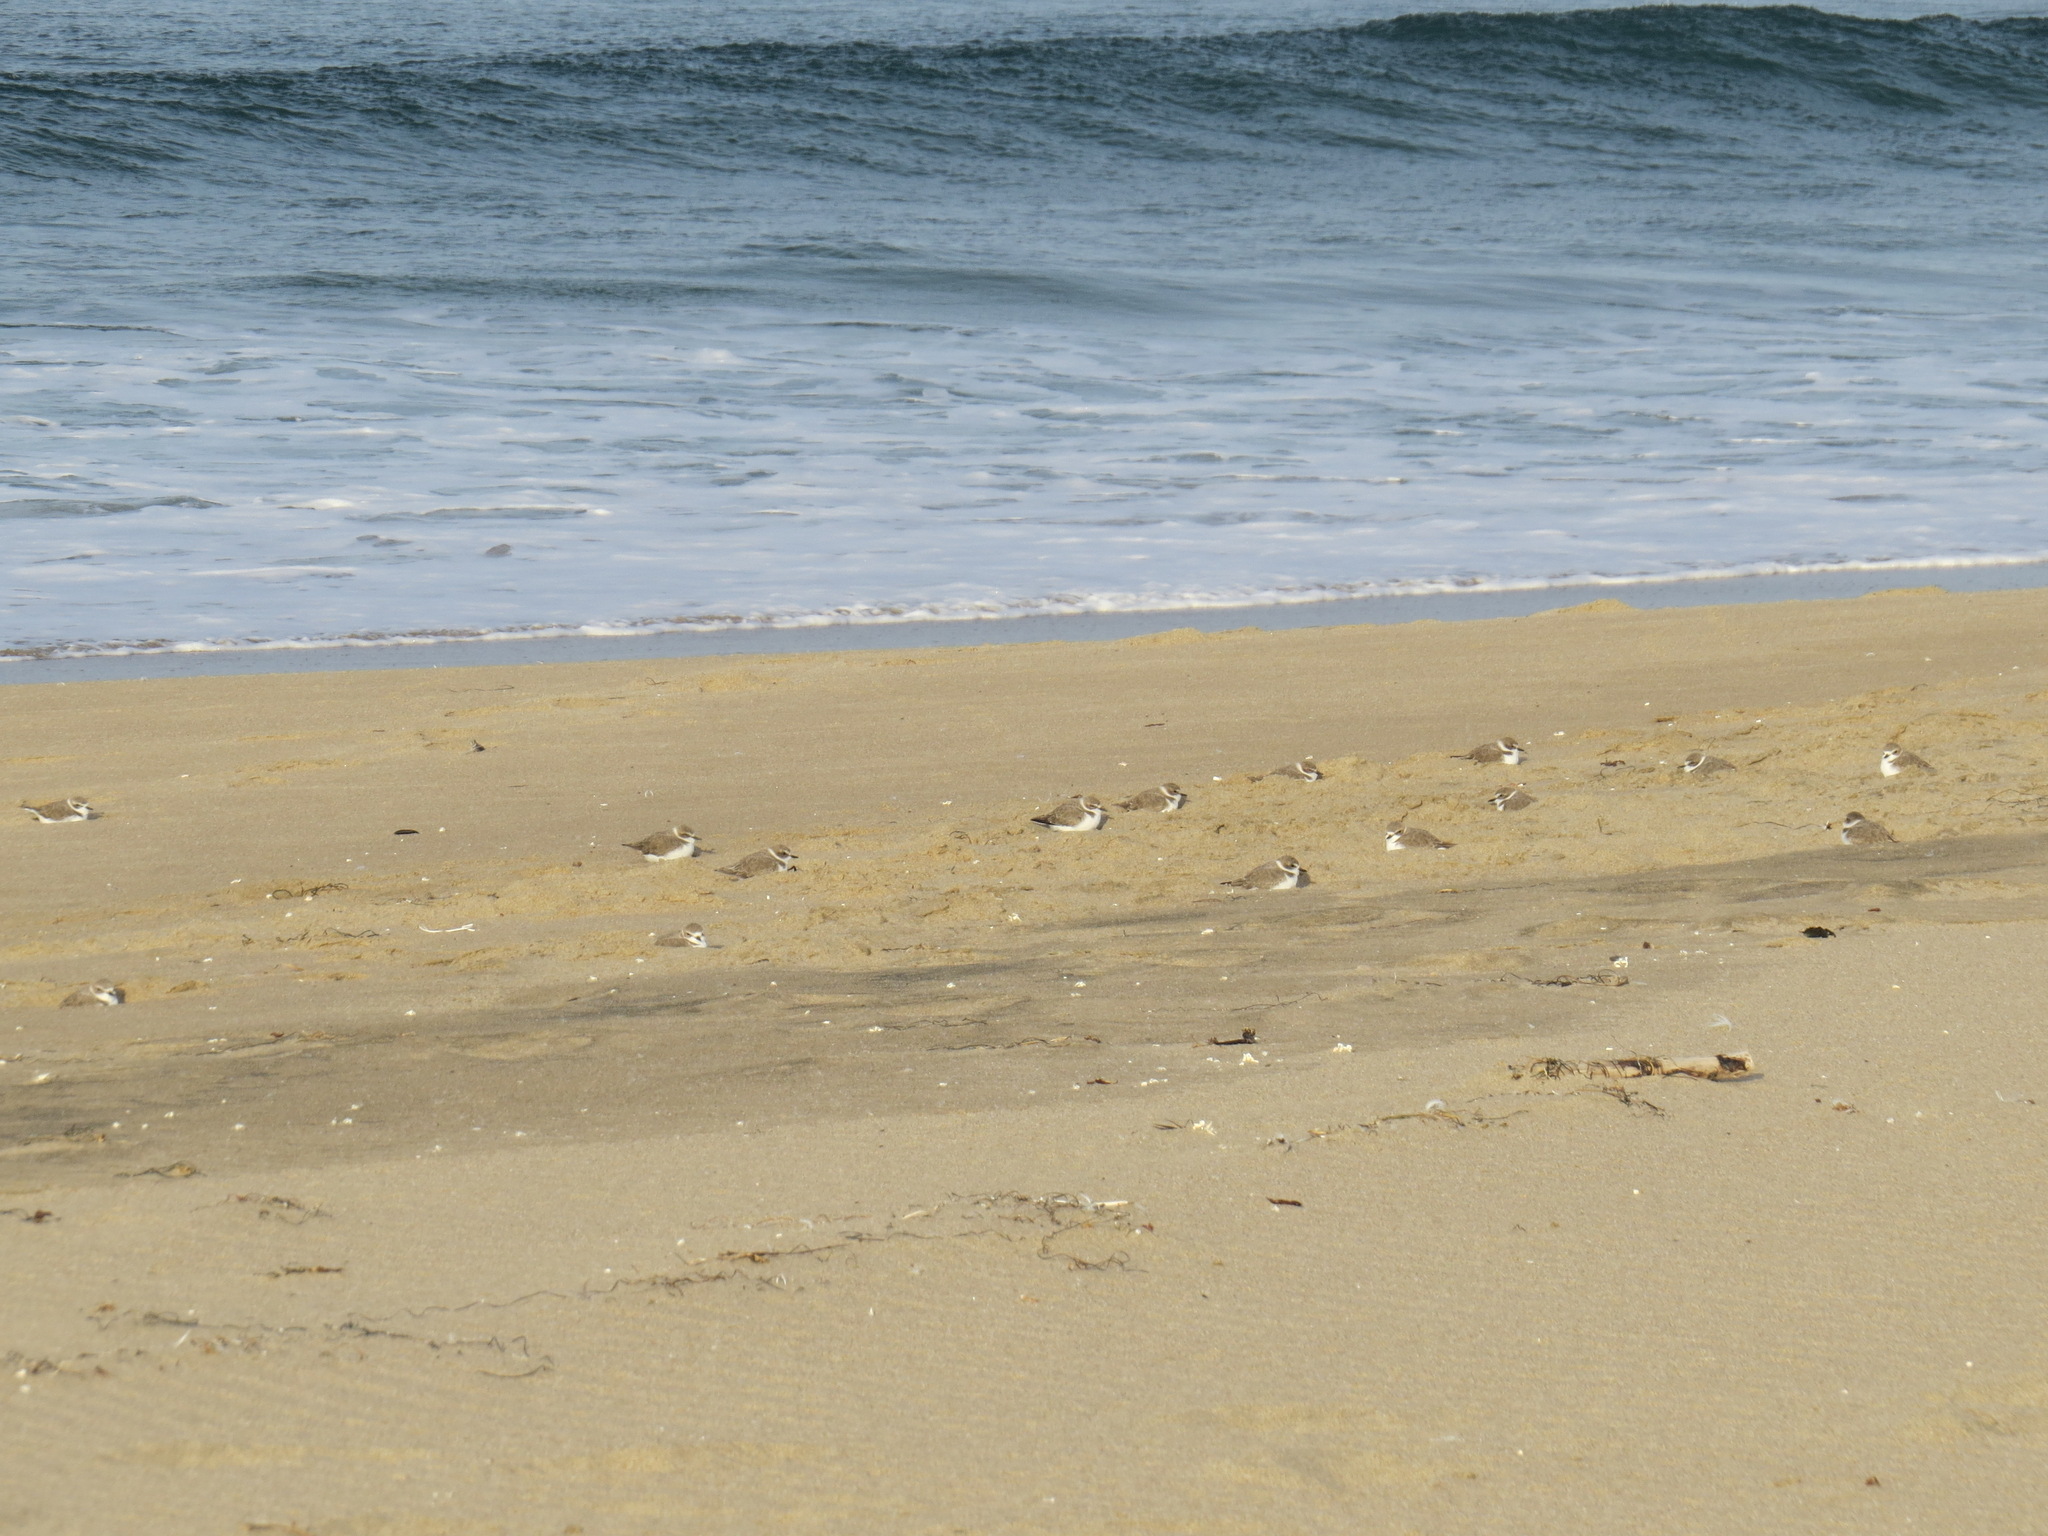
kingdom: Animalia
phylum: Chordata
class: Aves
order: Charadriiformes
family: Charadriidae
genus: Anarhynchus
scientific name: Anarhynchus
